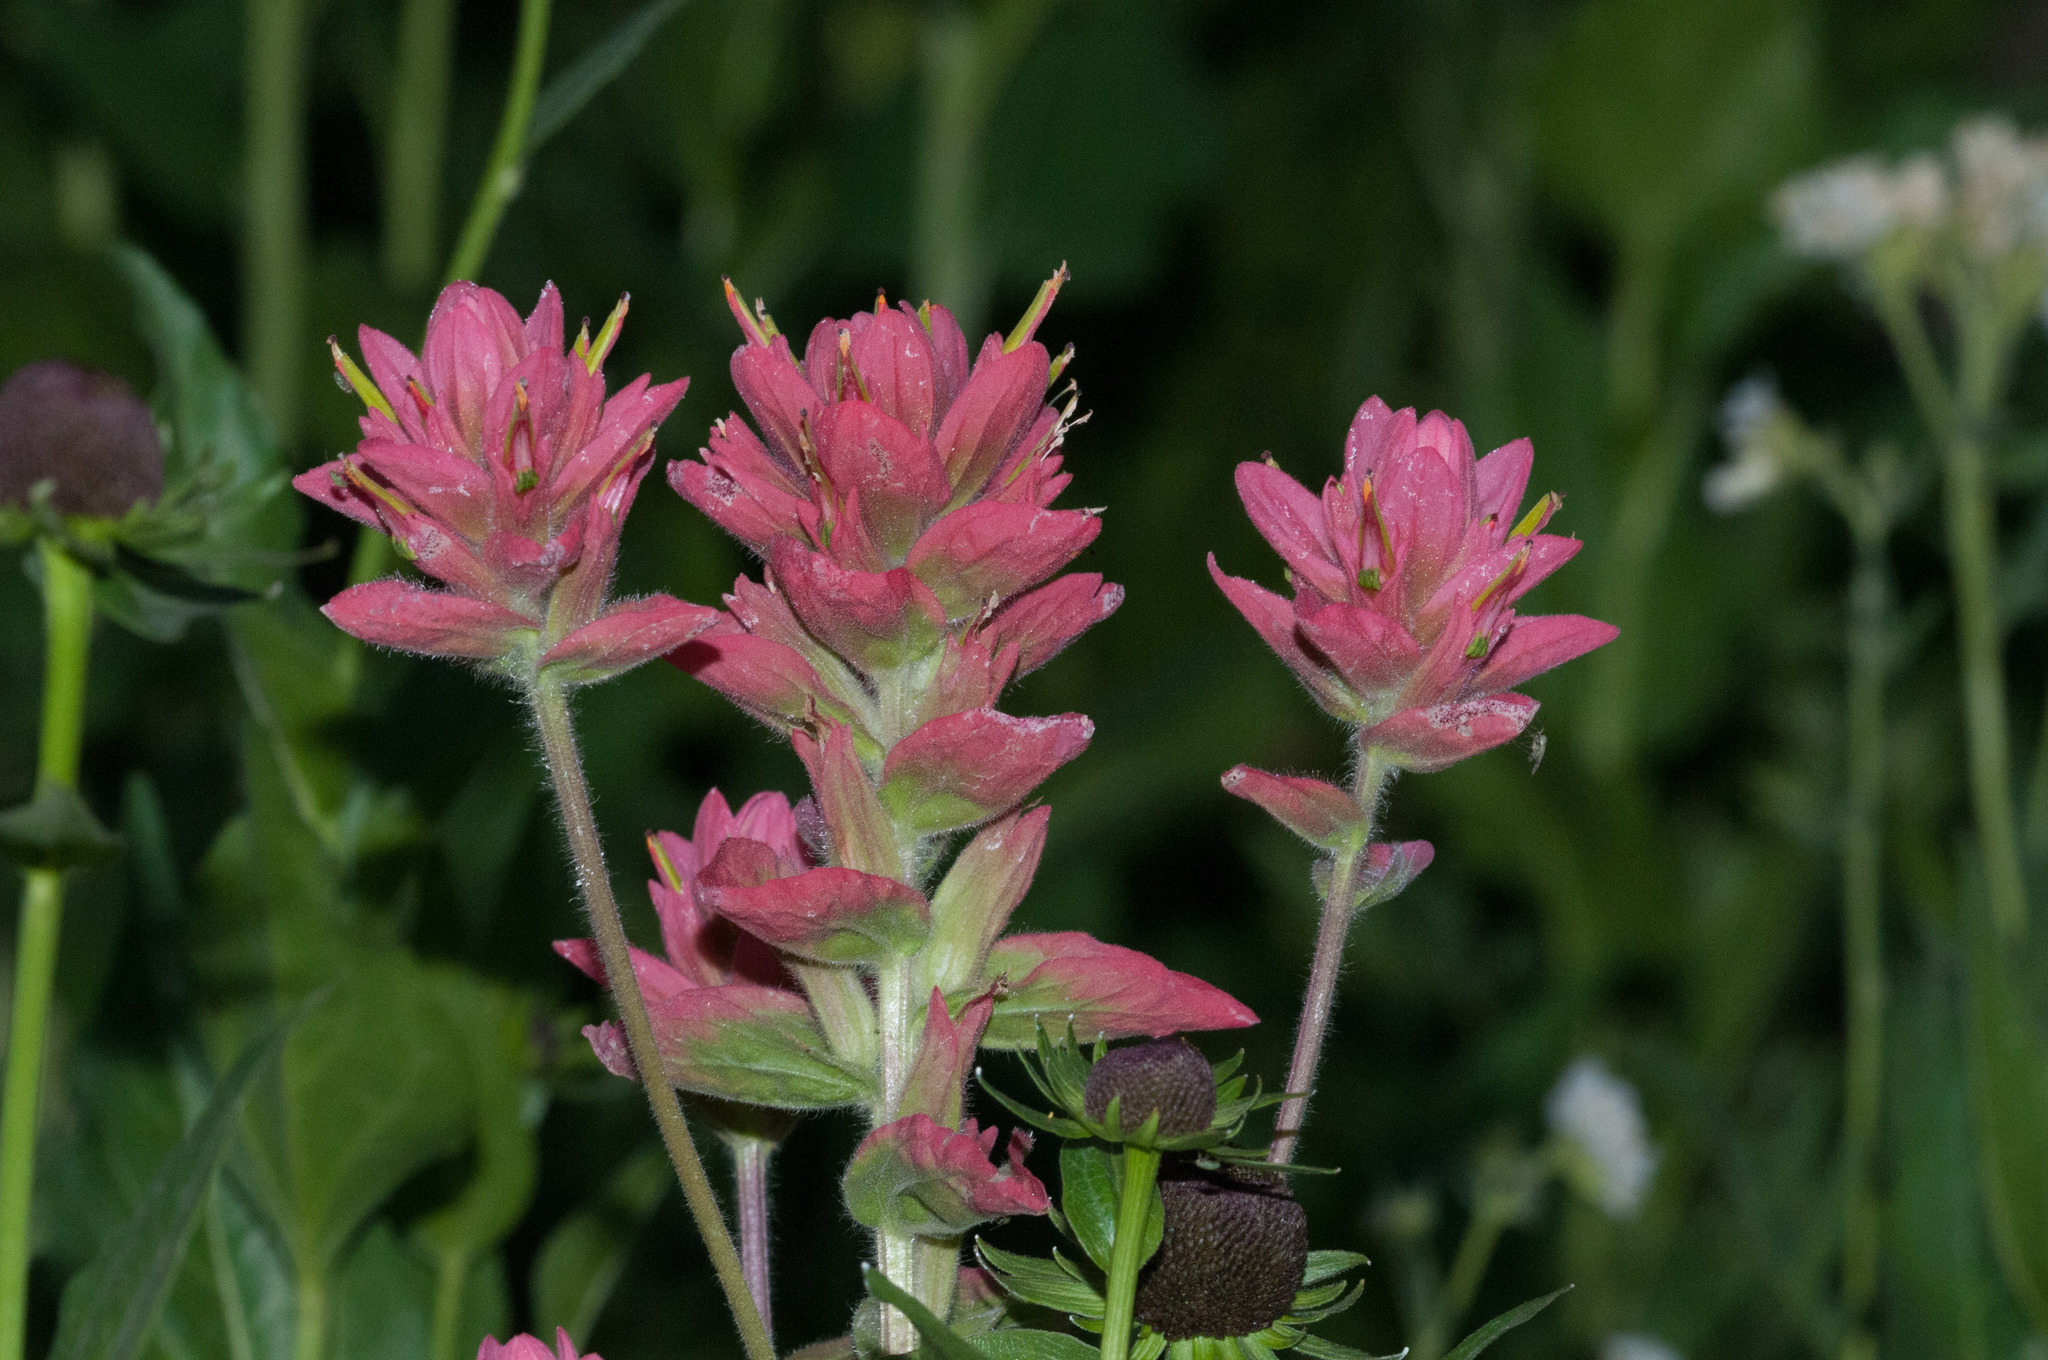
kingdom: Plantae
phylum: Tracheophyta
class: Magnoliopsida
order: Lamiales
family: Orobanchaceae
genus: Castilleja
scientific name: Castilleja rhexifolia
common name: Rocky mountain paintbrush
